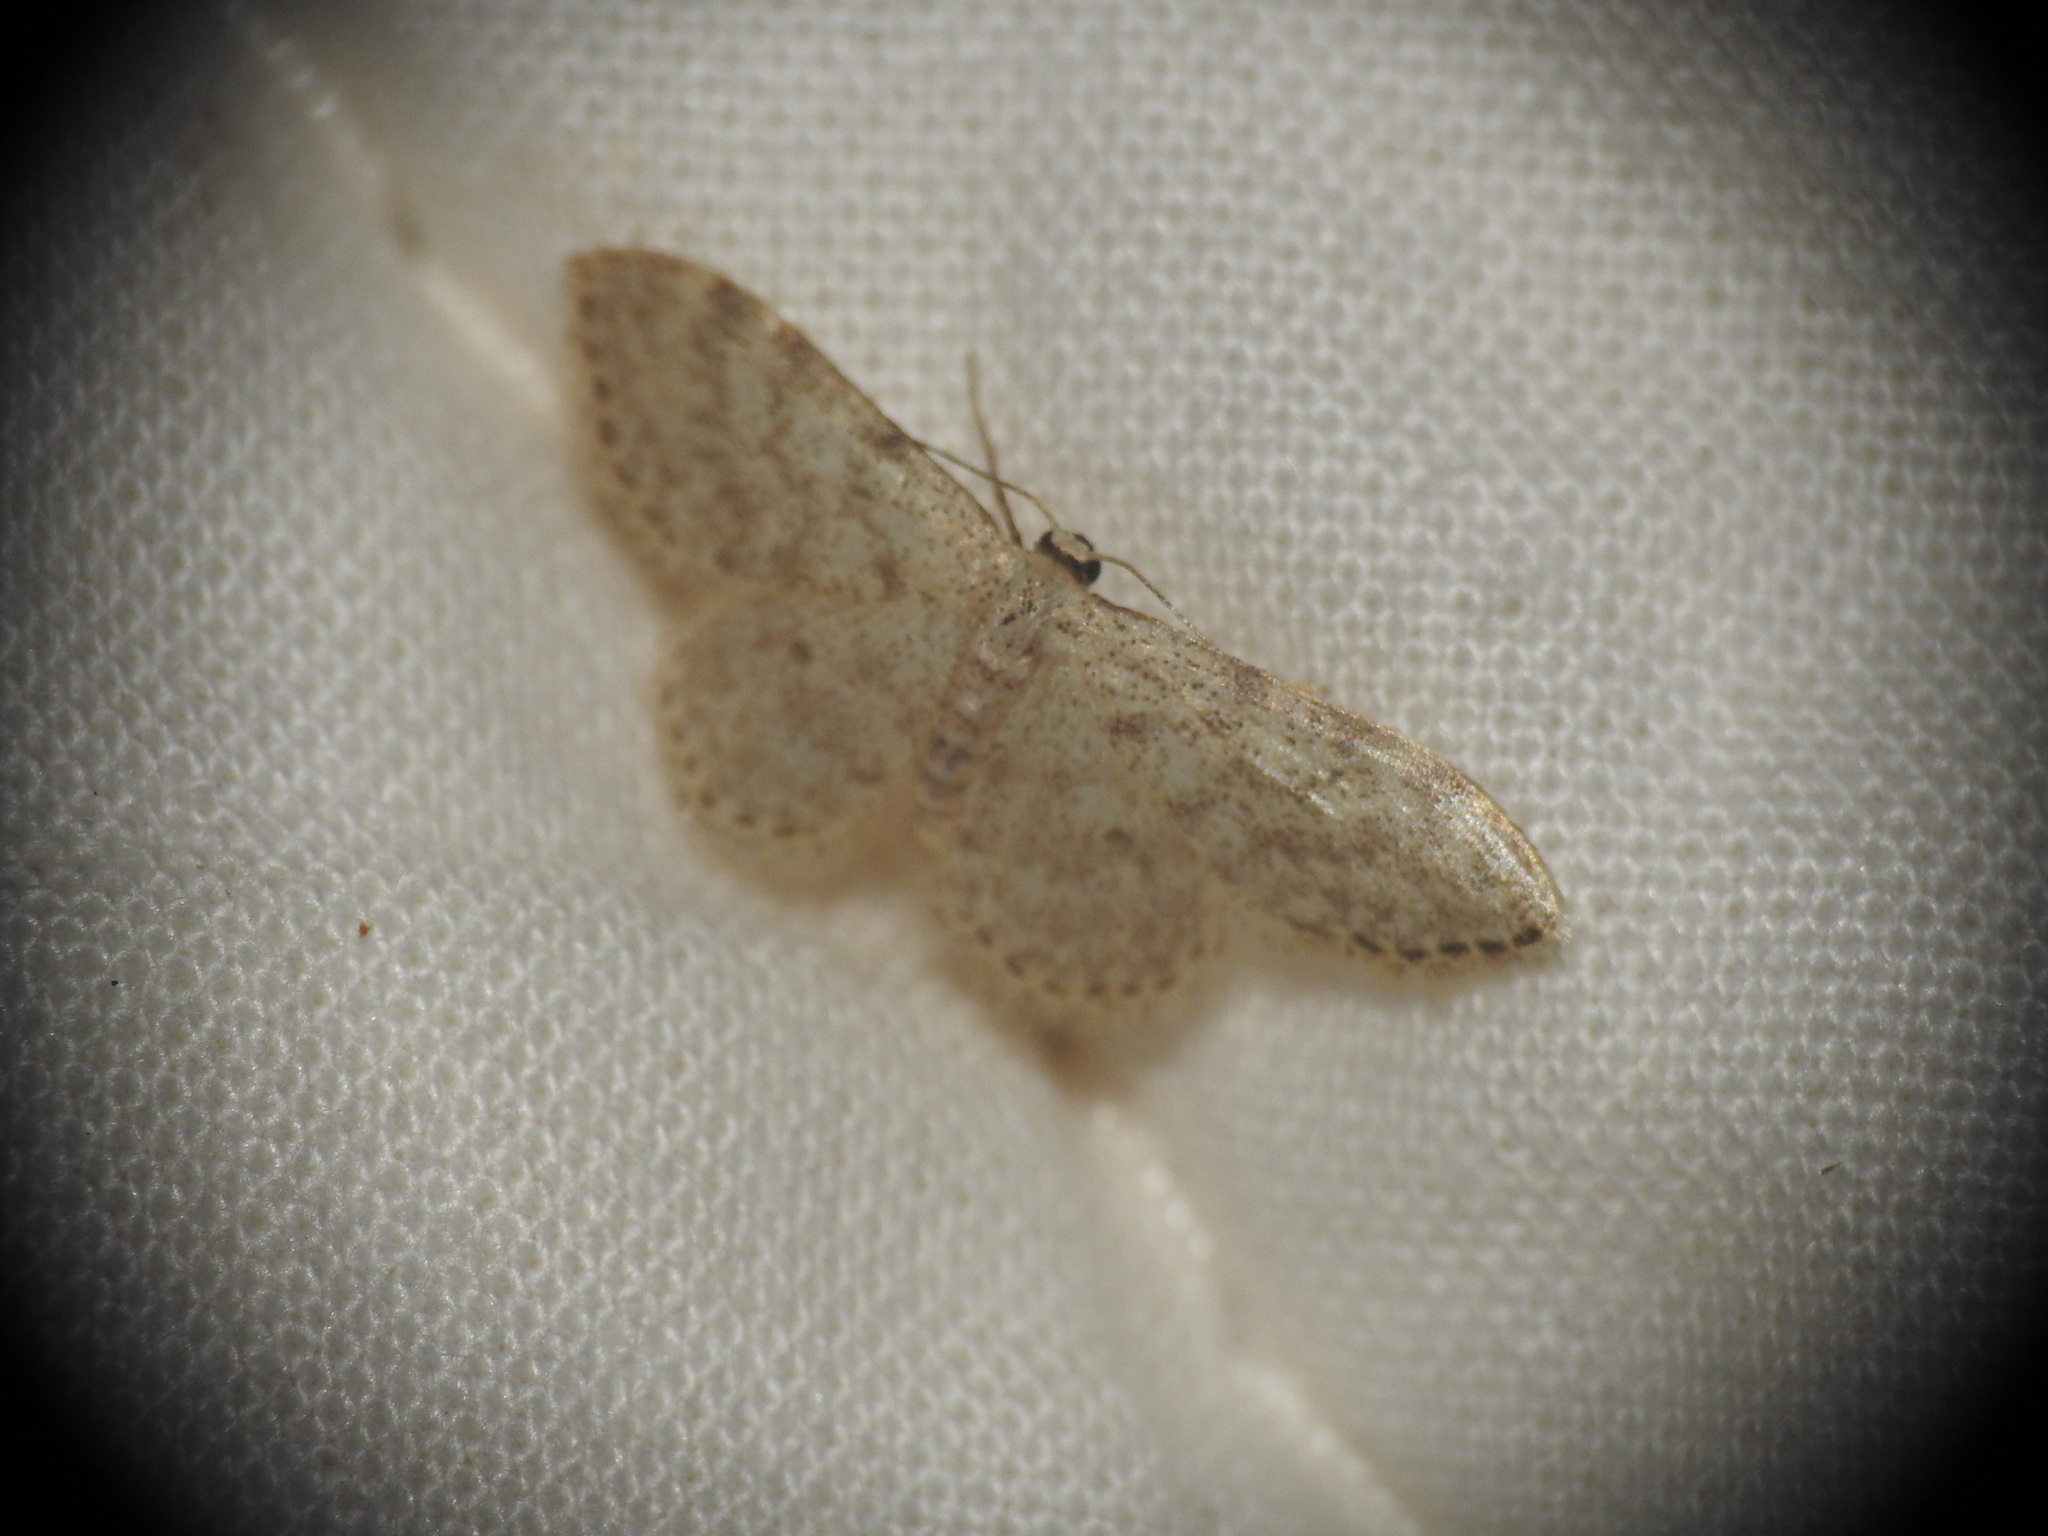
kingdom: Animalia
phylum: Arthropoda
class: Insecta
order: Lepidoptera
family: Geometridae
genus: Idaea
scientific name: Idaea cervantaria
